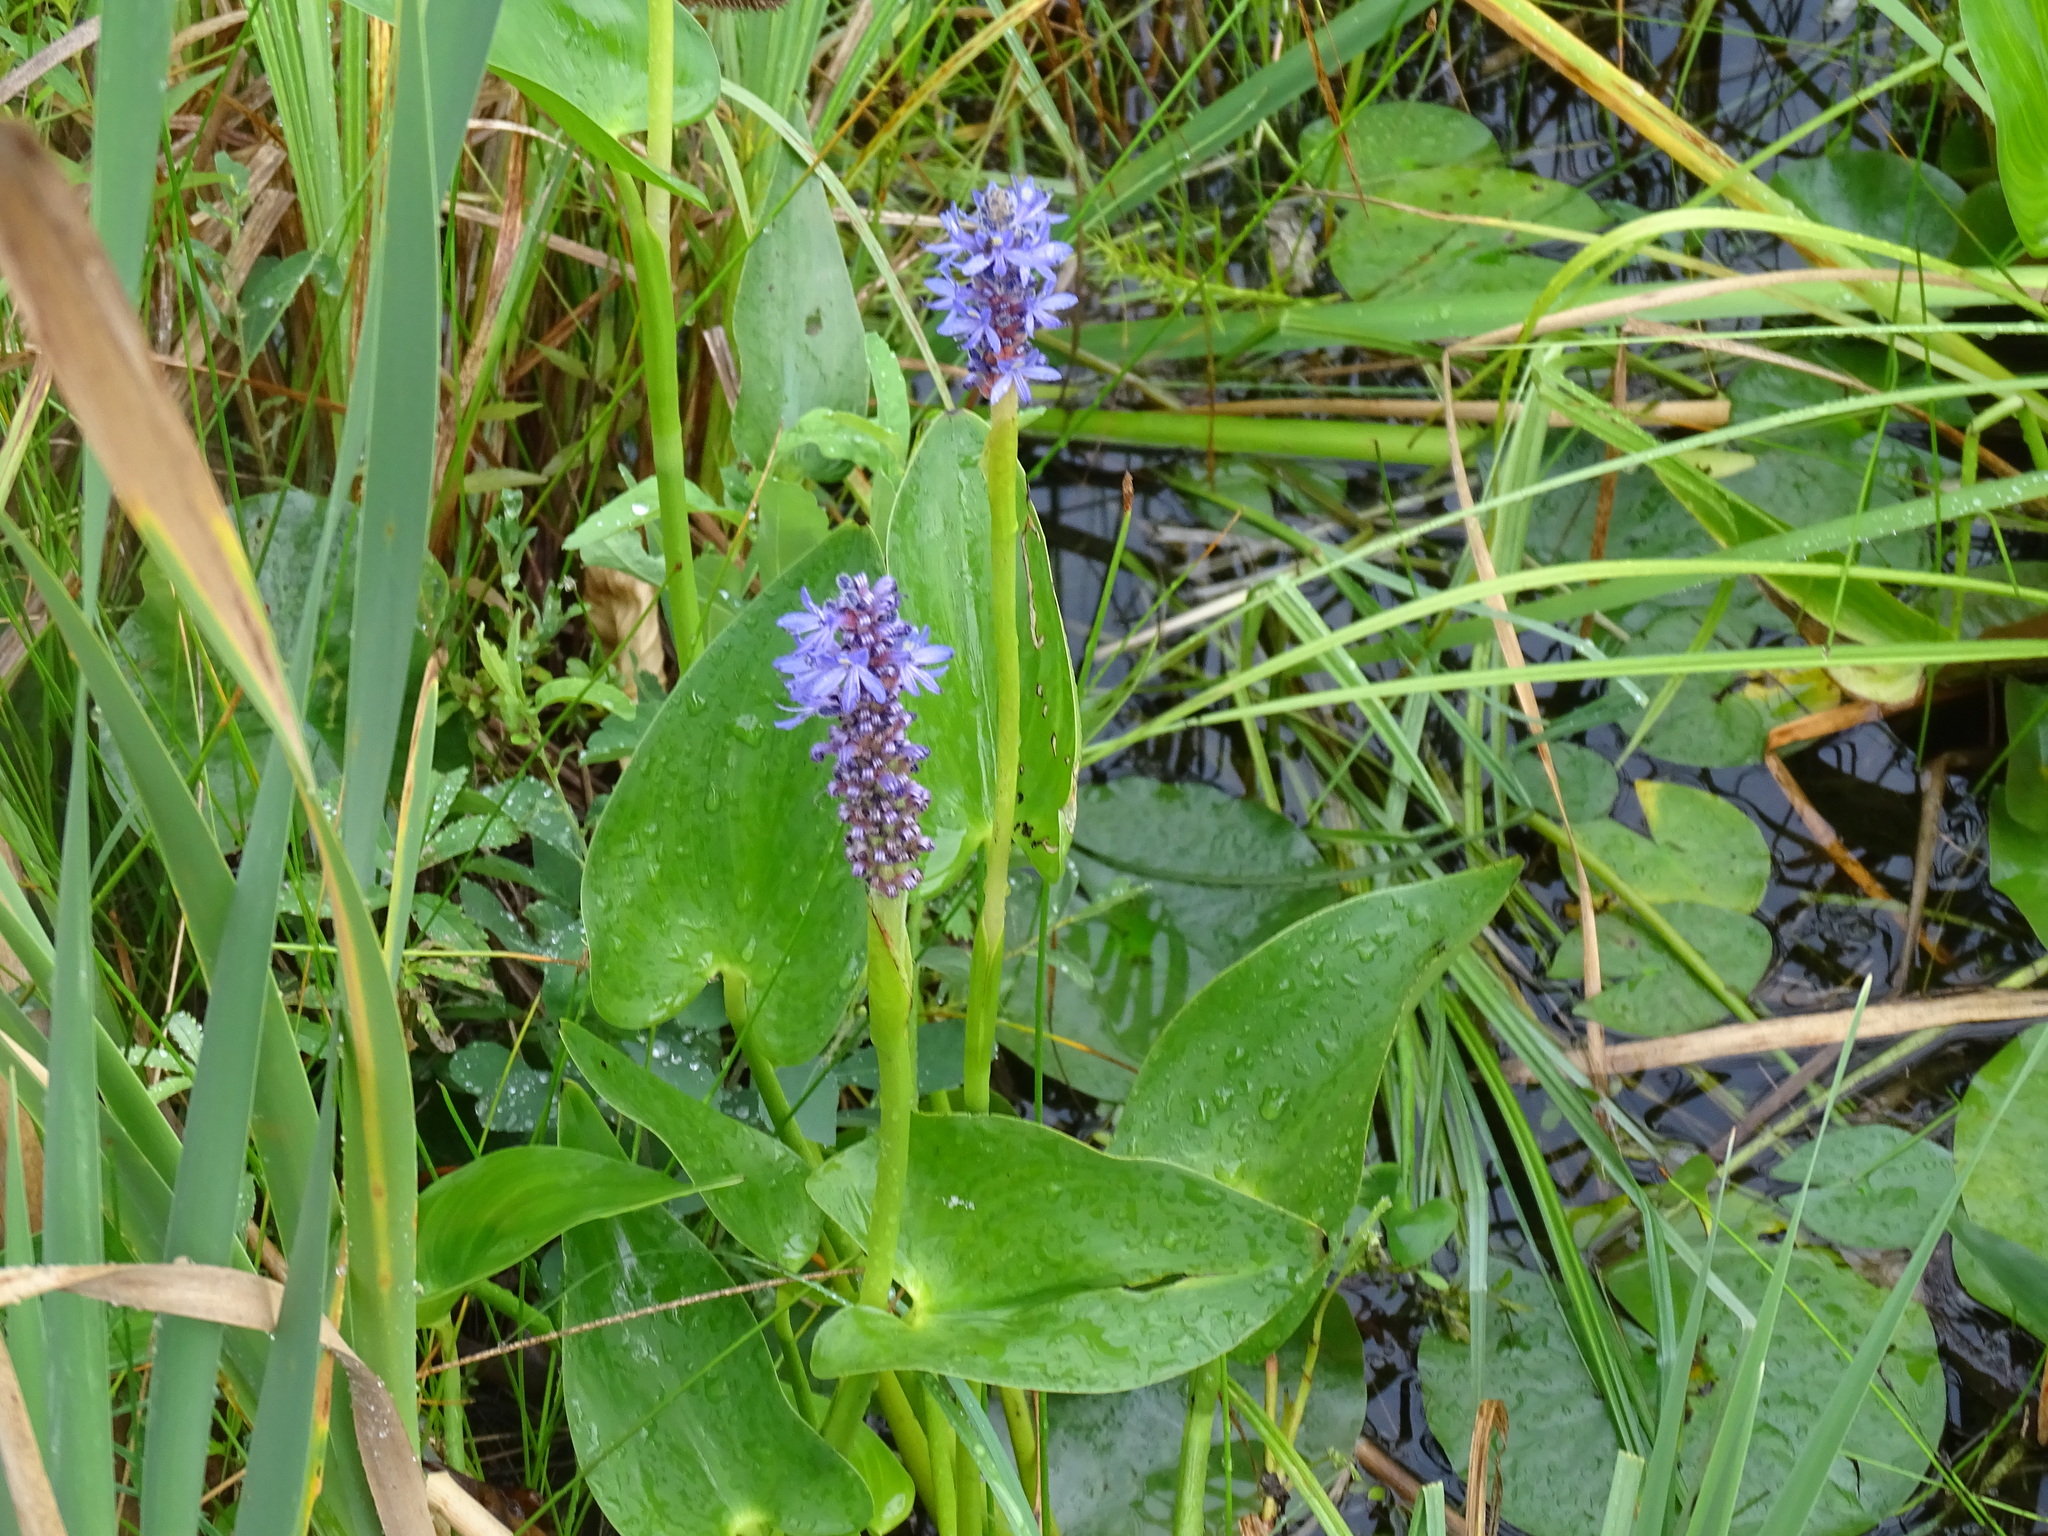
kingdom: Plantae
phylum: Tracheophyta
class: Liliopsida
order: Commelinales
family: Pontederiaceae
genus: Pontederia
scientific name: Pontederia cordata
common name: Pickerelweed
